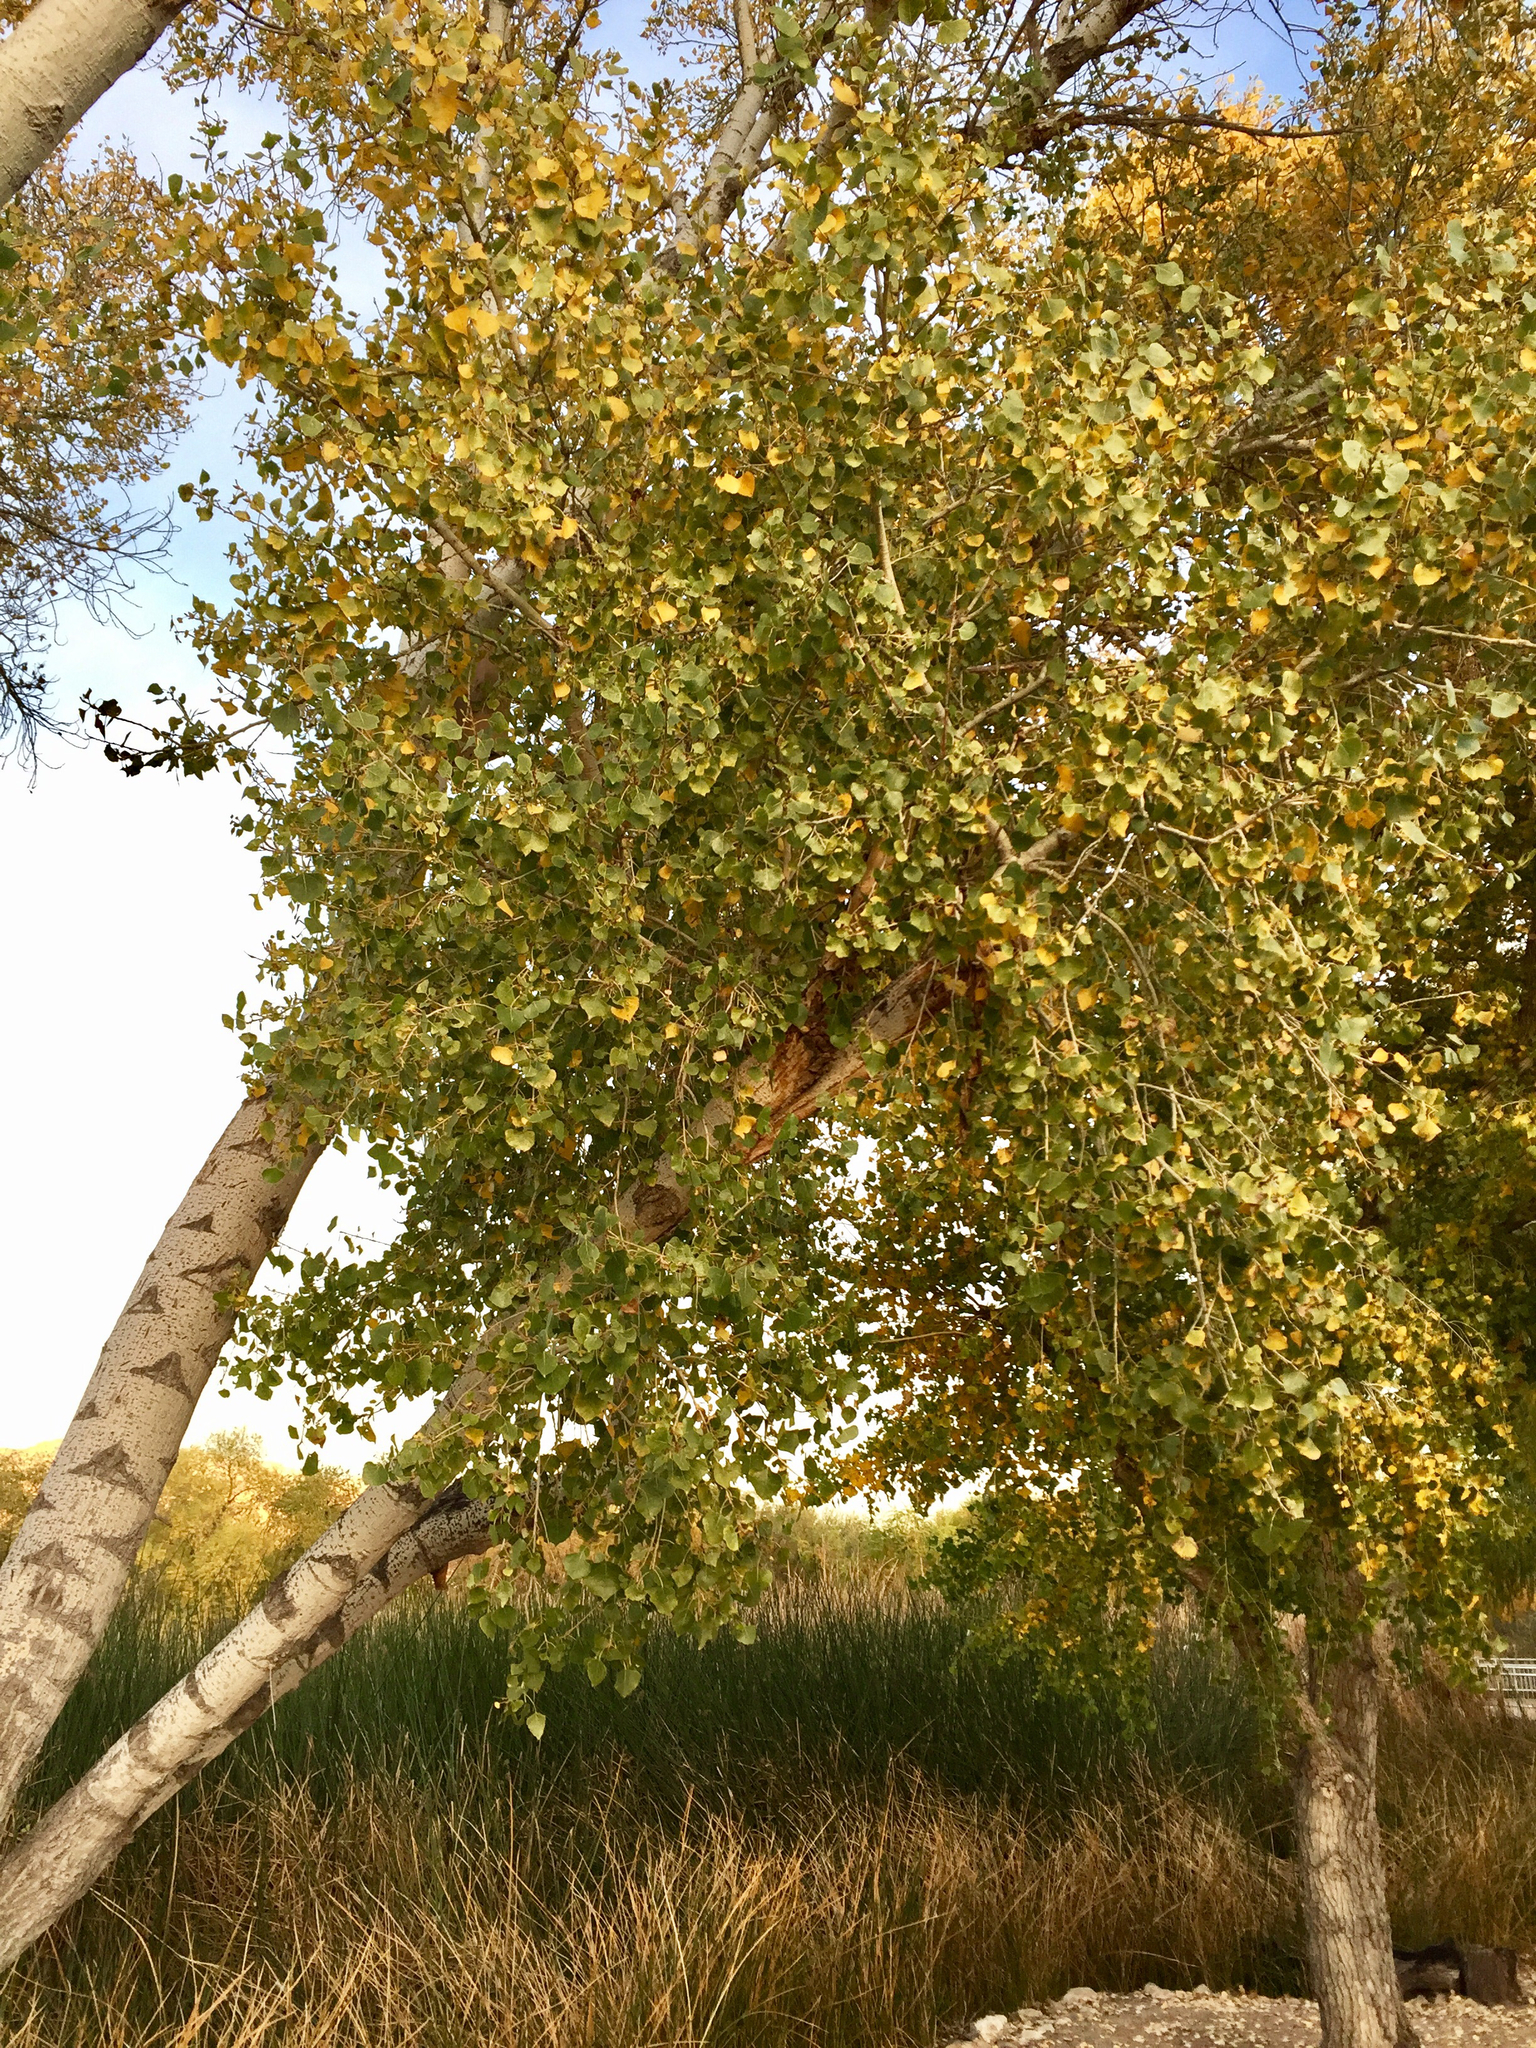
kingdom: Plantae
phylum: Tracheophyta
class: Magnoliopsida
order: Malpighiales
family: Salicaceae
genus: Populus
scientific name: Populus fremontii
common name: Fremont's cottonwood
